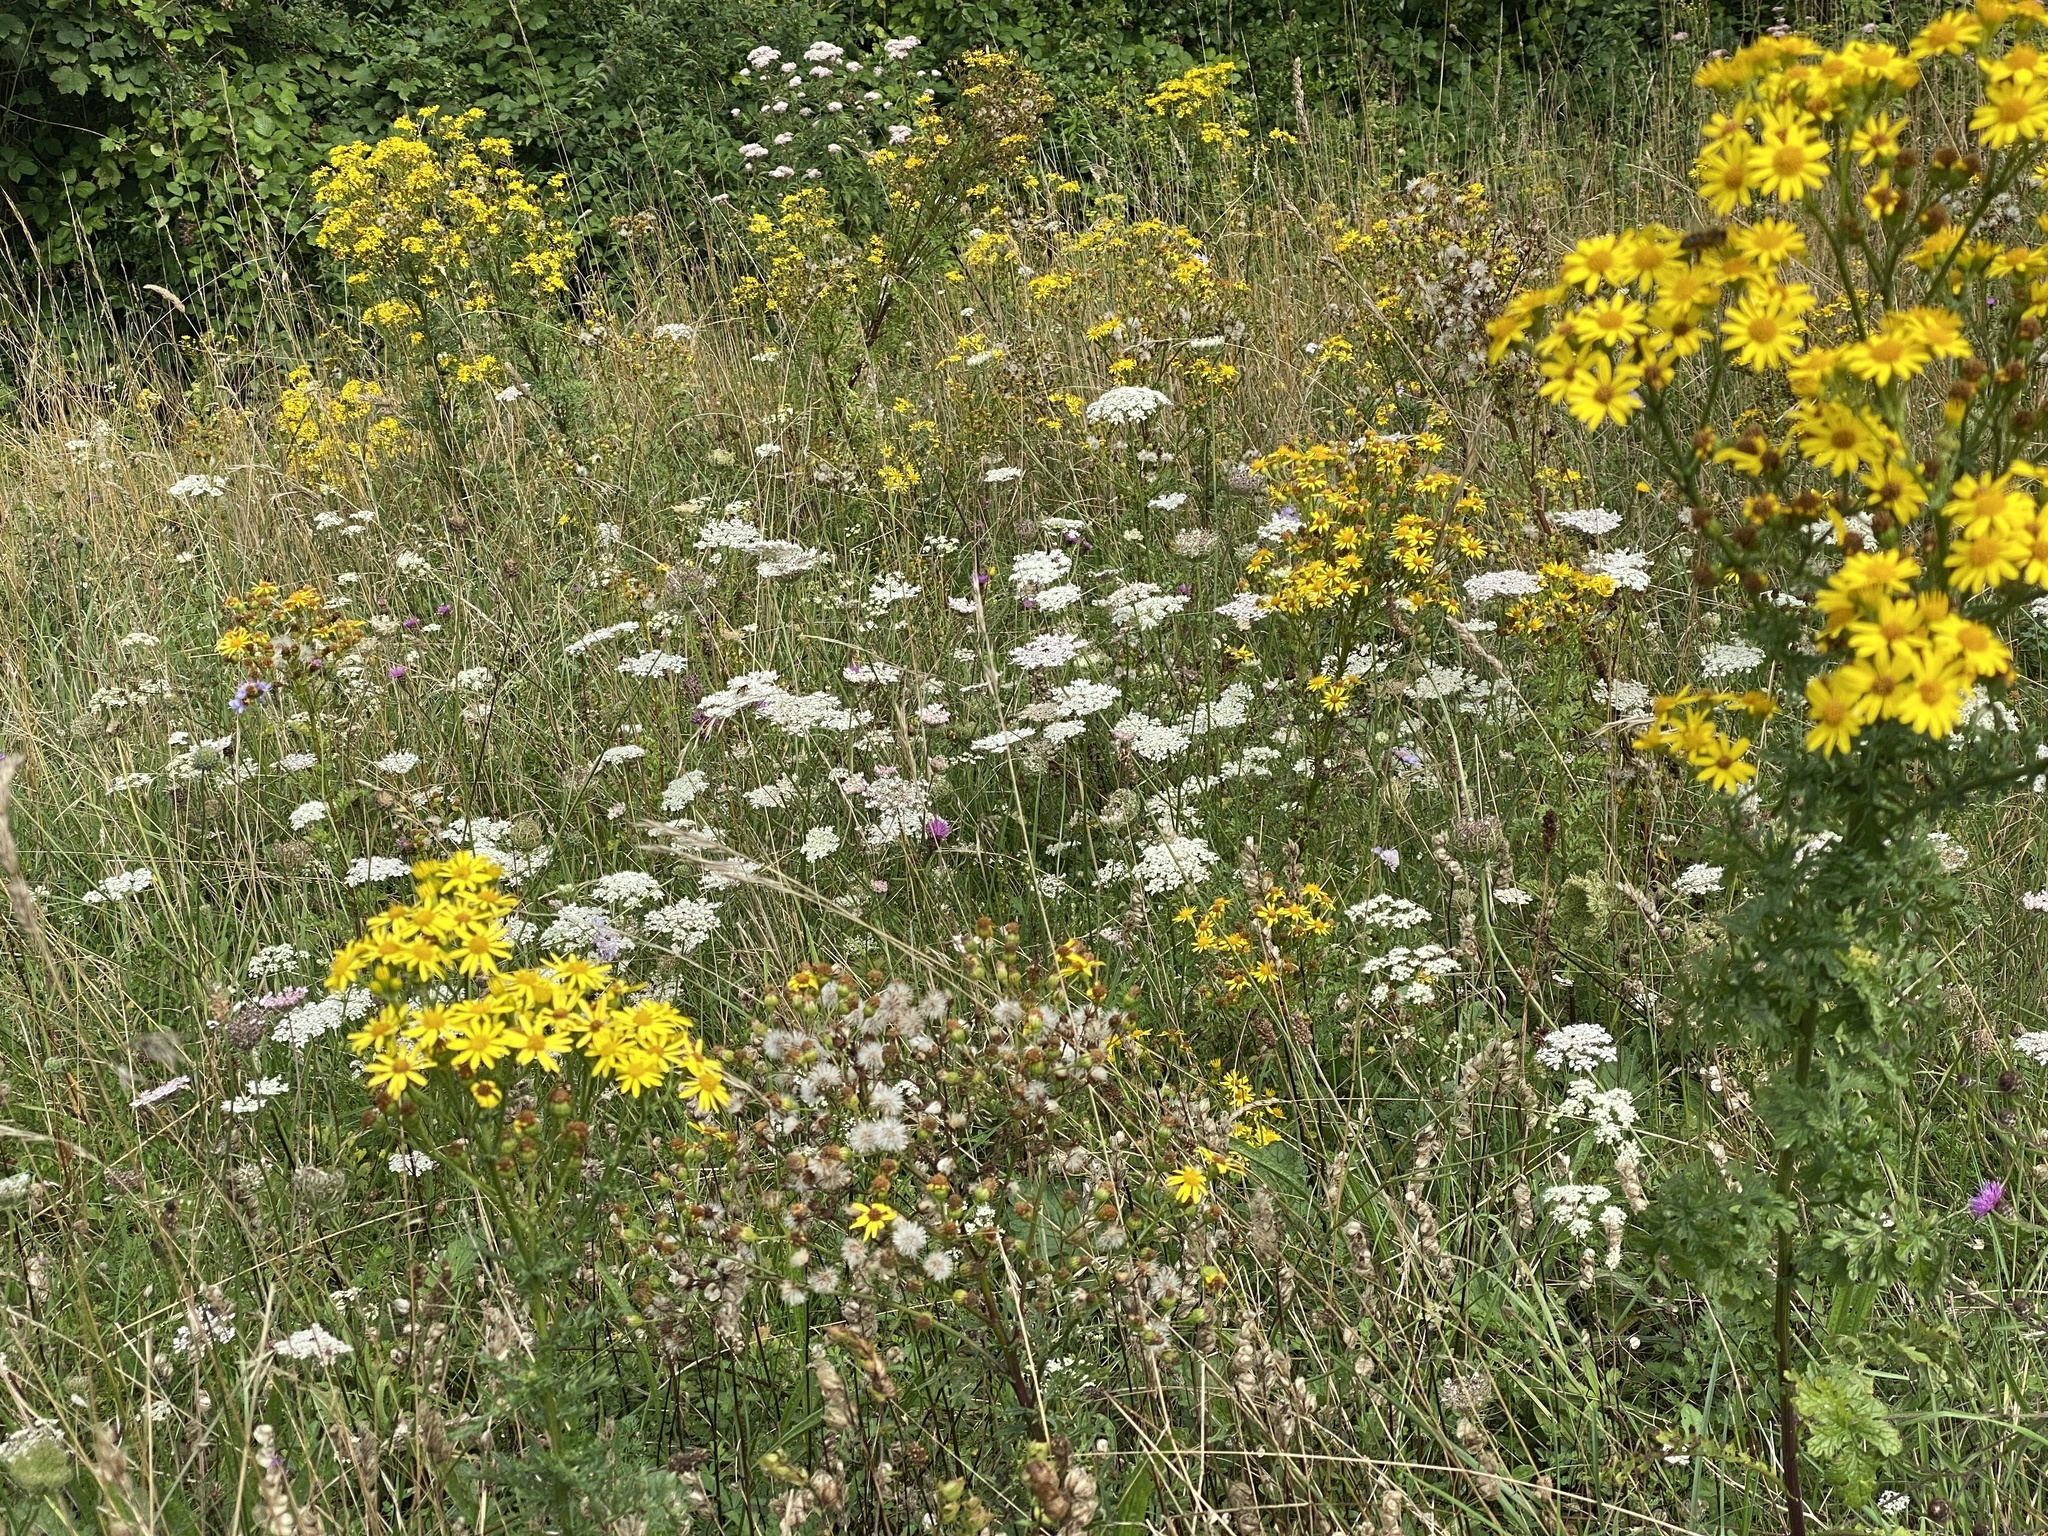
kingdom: Plantae
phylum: Tracheophyta
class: Magnoliopsida
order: Asterales
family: Asteraceae
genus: Jacobaea
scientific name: Jacobaea vulgaris
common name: Stinking willie
